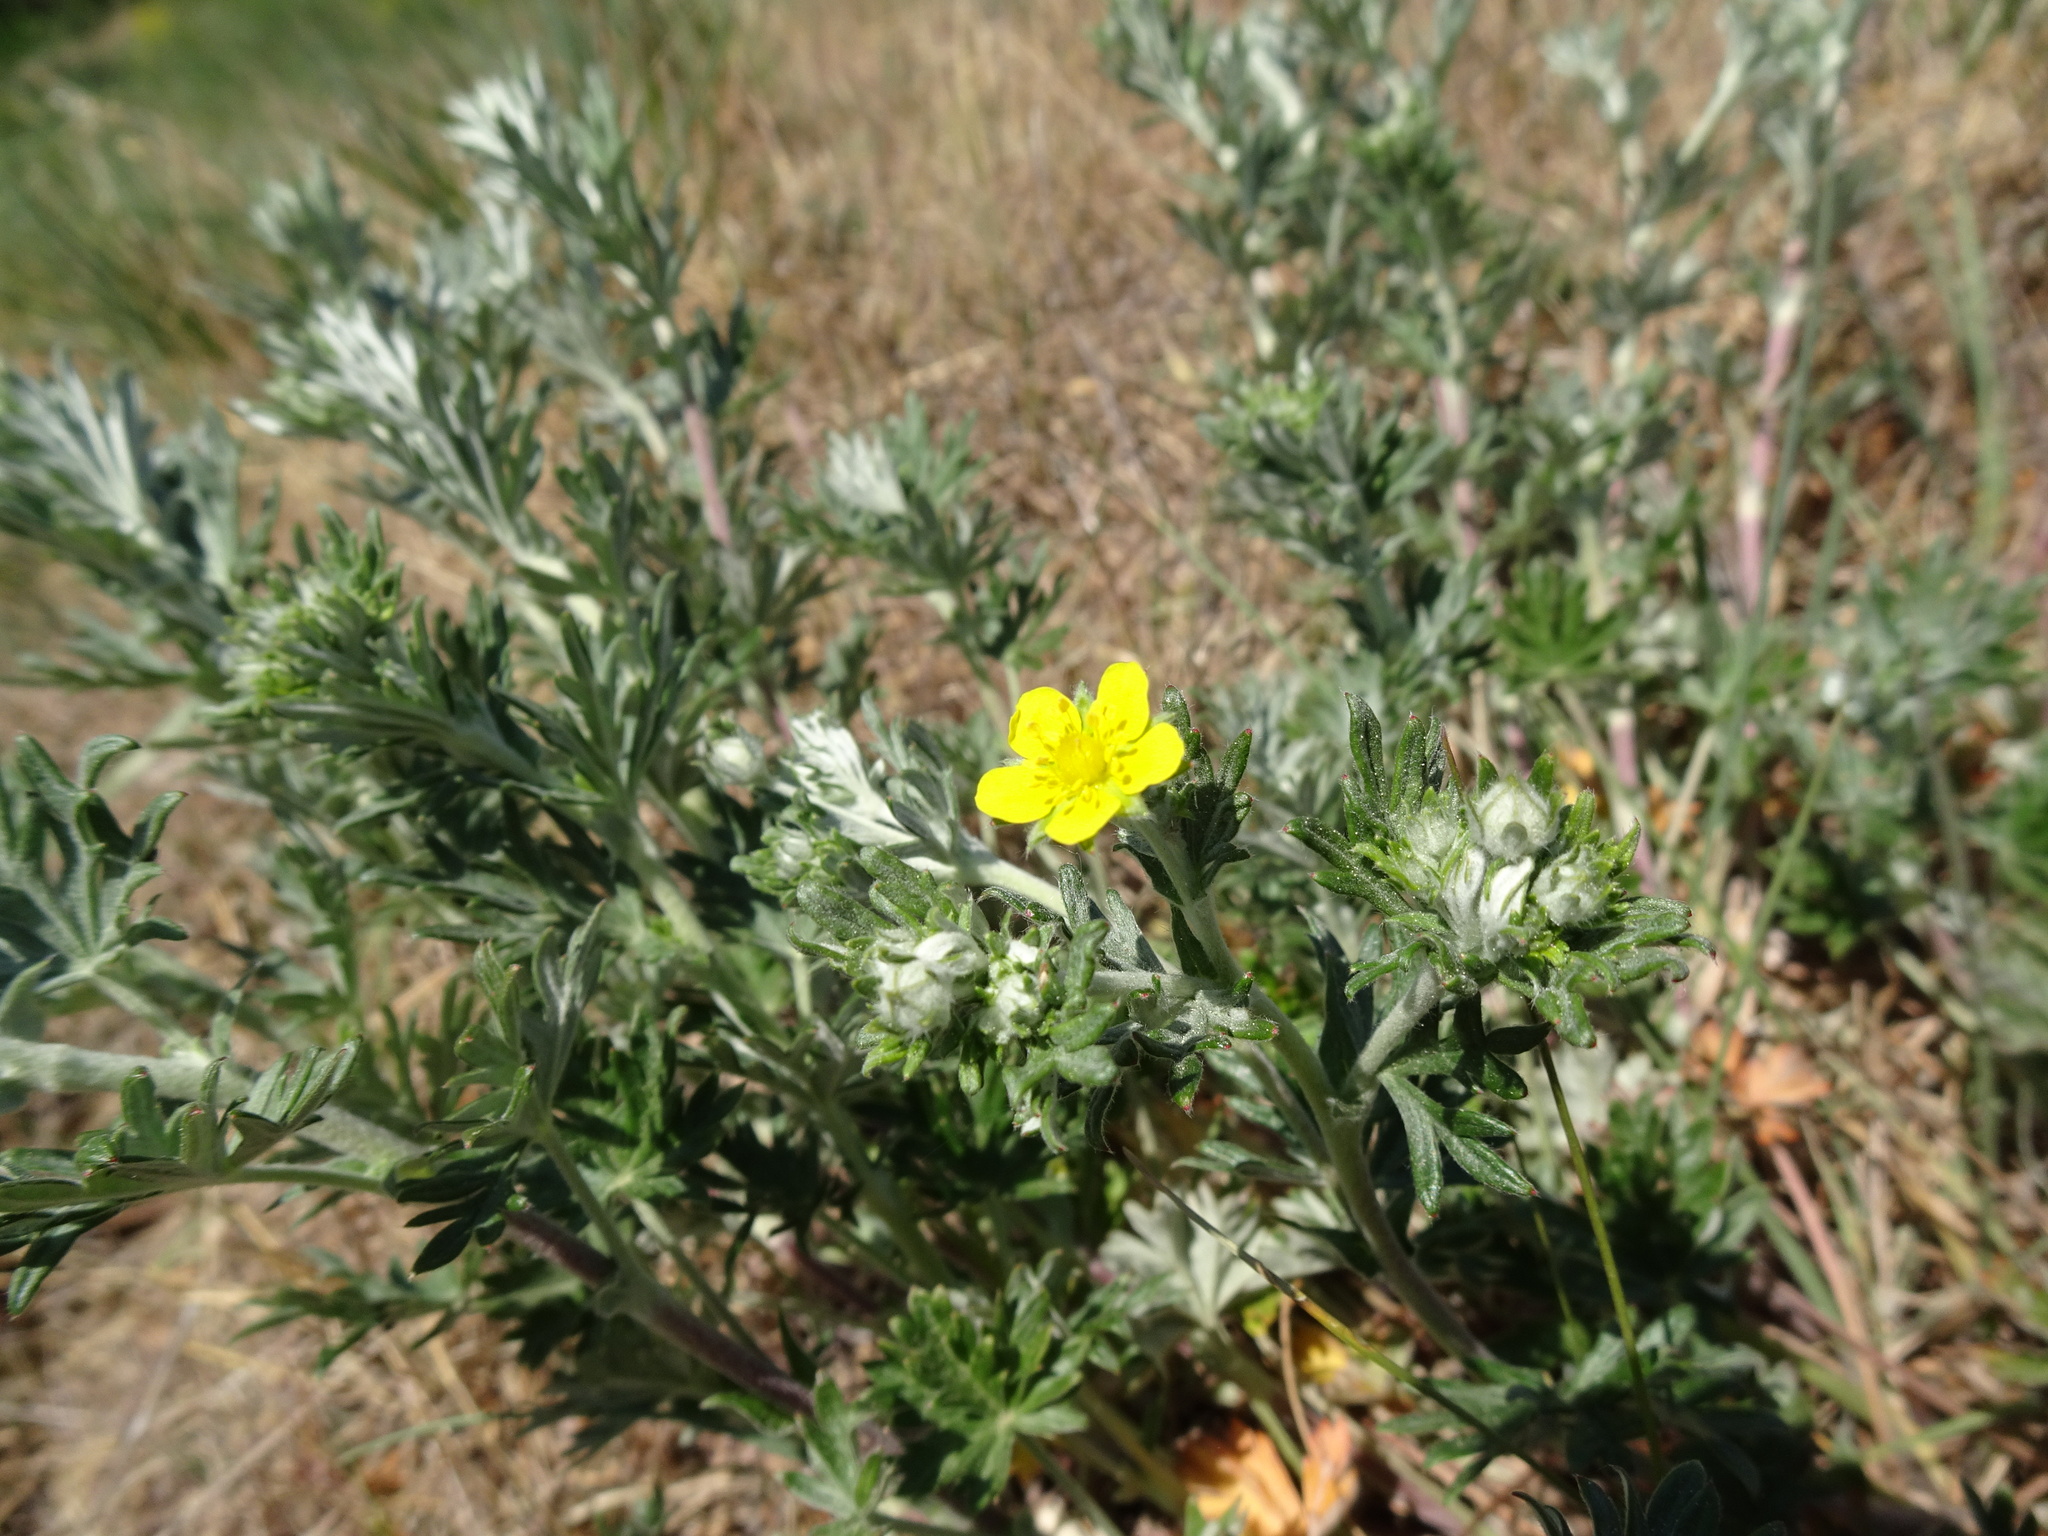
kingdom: Plantae
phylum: Tracheophyta
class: Magnoliopsida
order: Rosales
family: Rosaceae
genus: Potentilla
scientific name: Potentilla argentea
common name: Hoary cinquefoil
